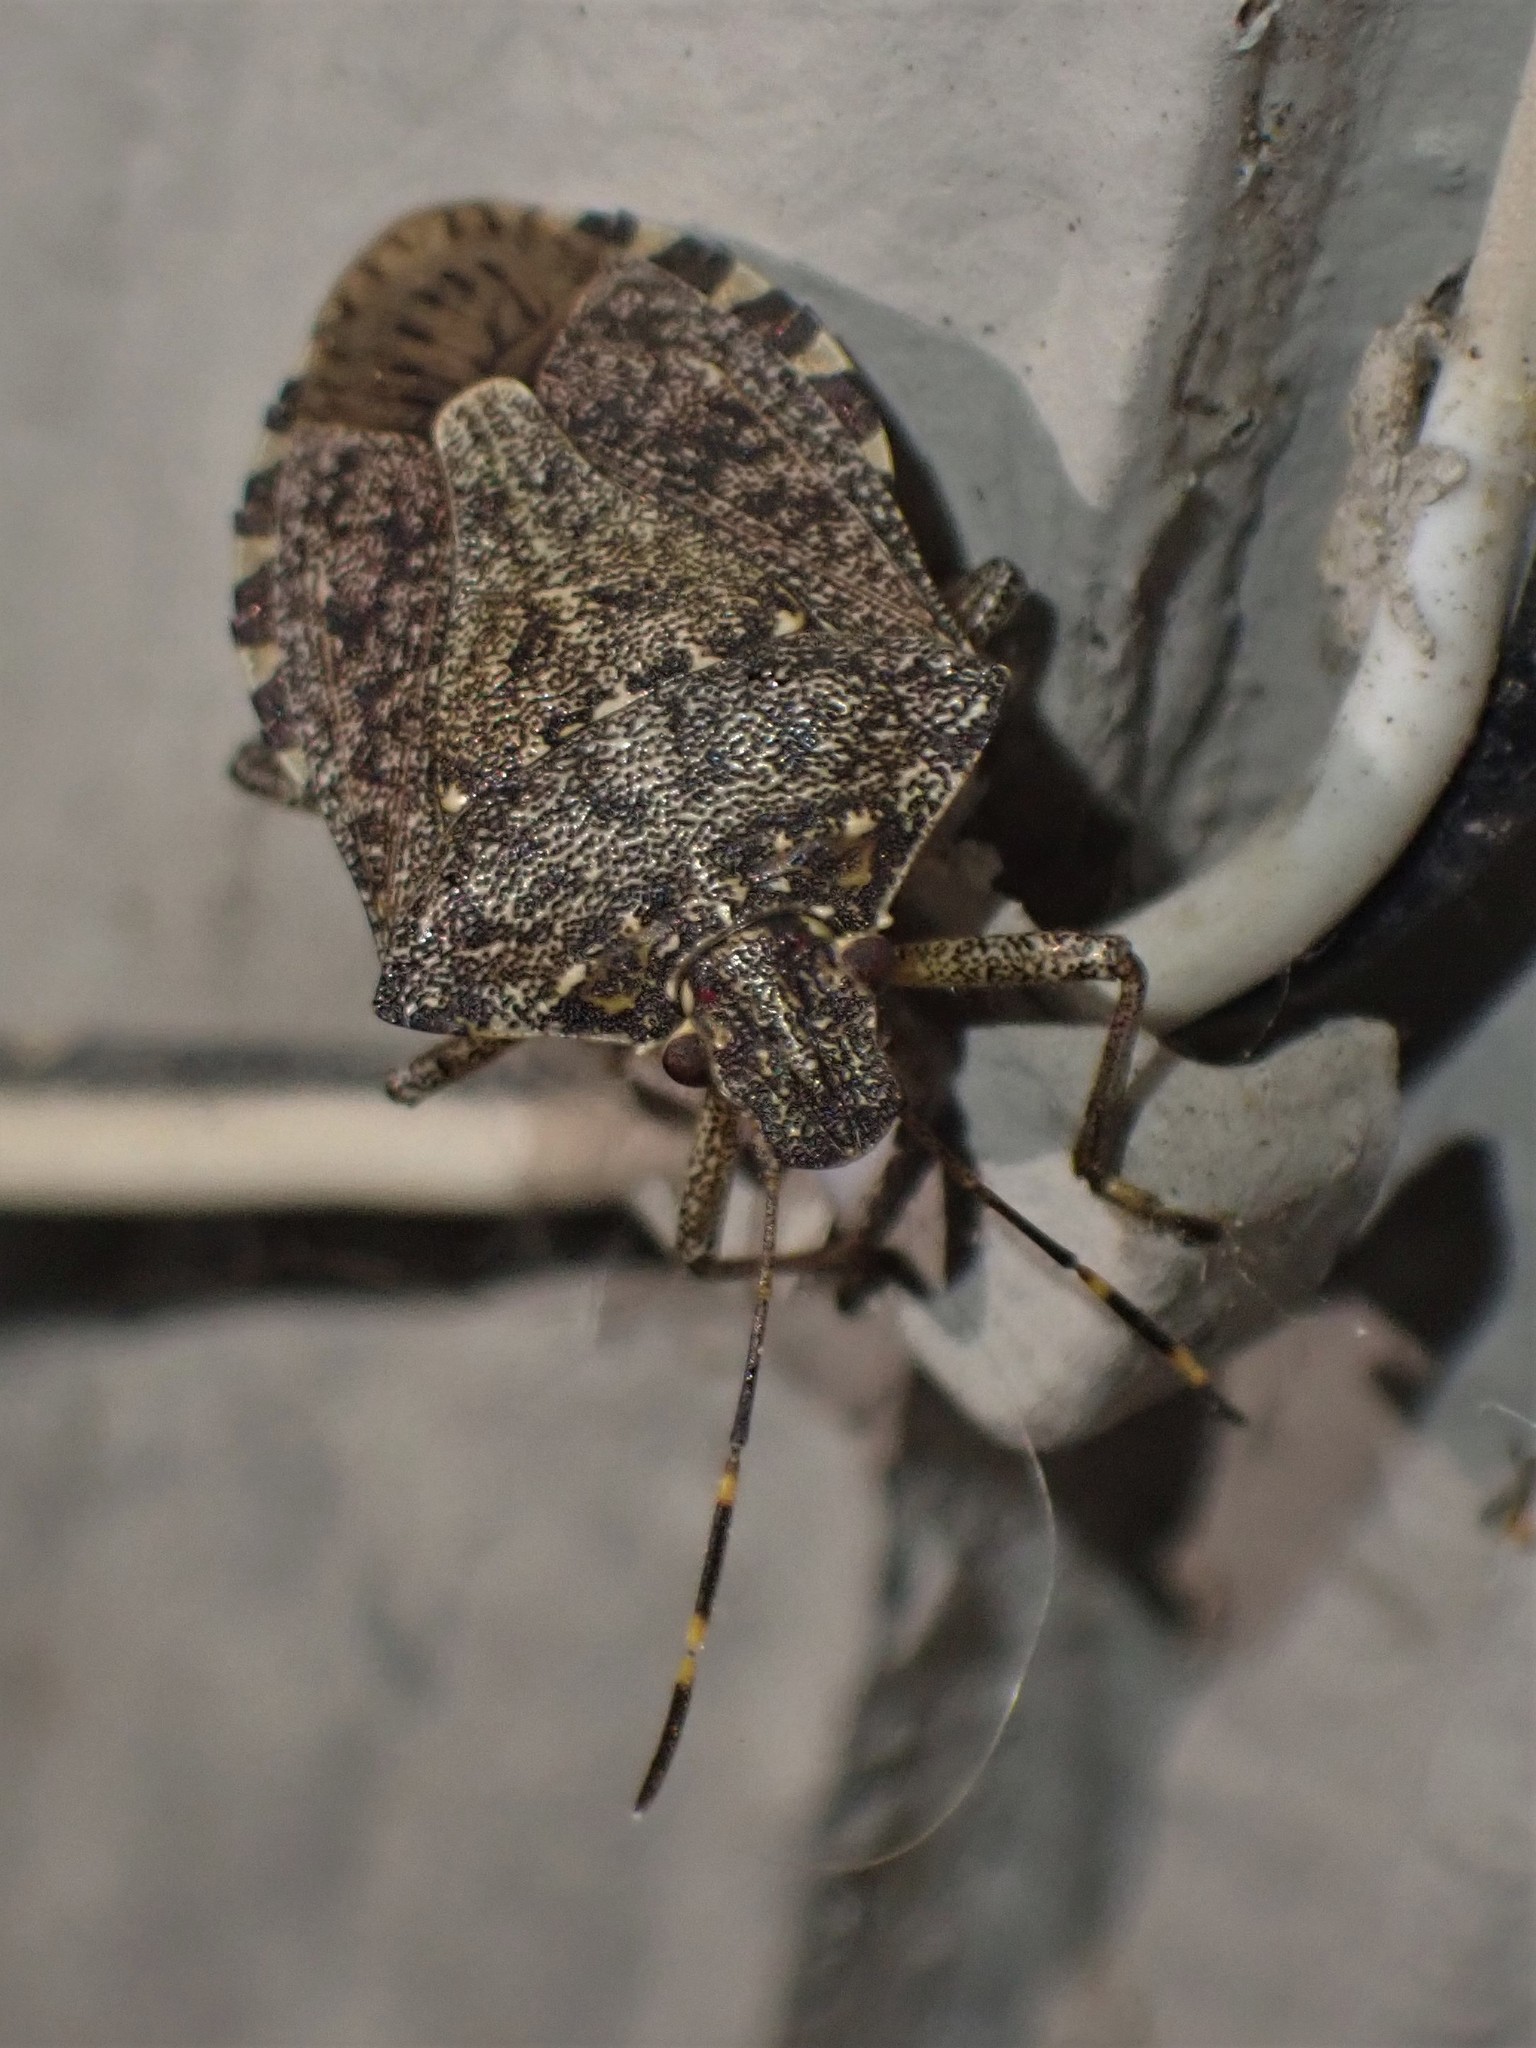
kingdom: Animalia
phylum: Arthropoda
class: Insecta
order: Hemiptera
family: Pentatomidae
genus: Halyomorpha
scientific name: Halyomorpha halys
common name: Brown marmorated stink bug
